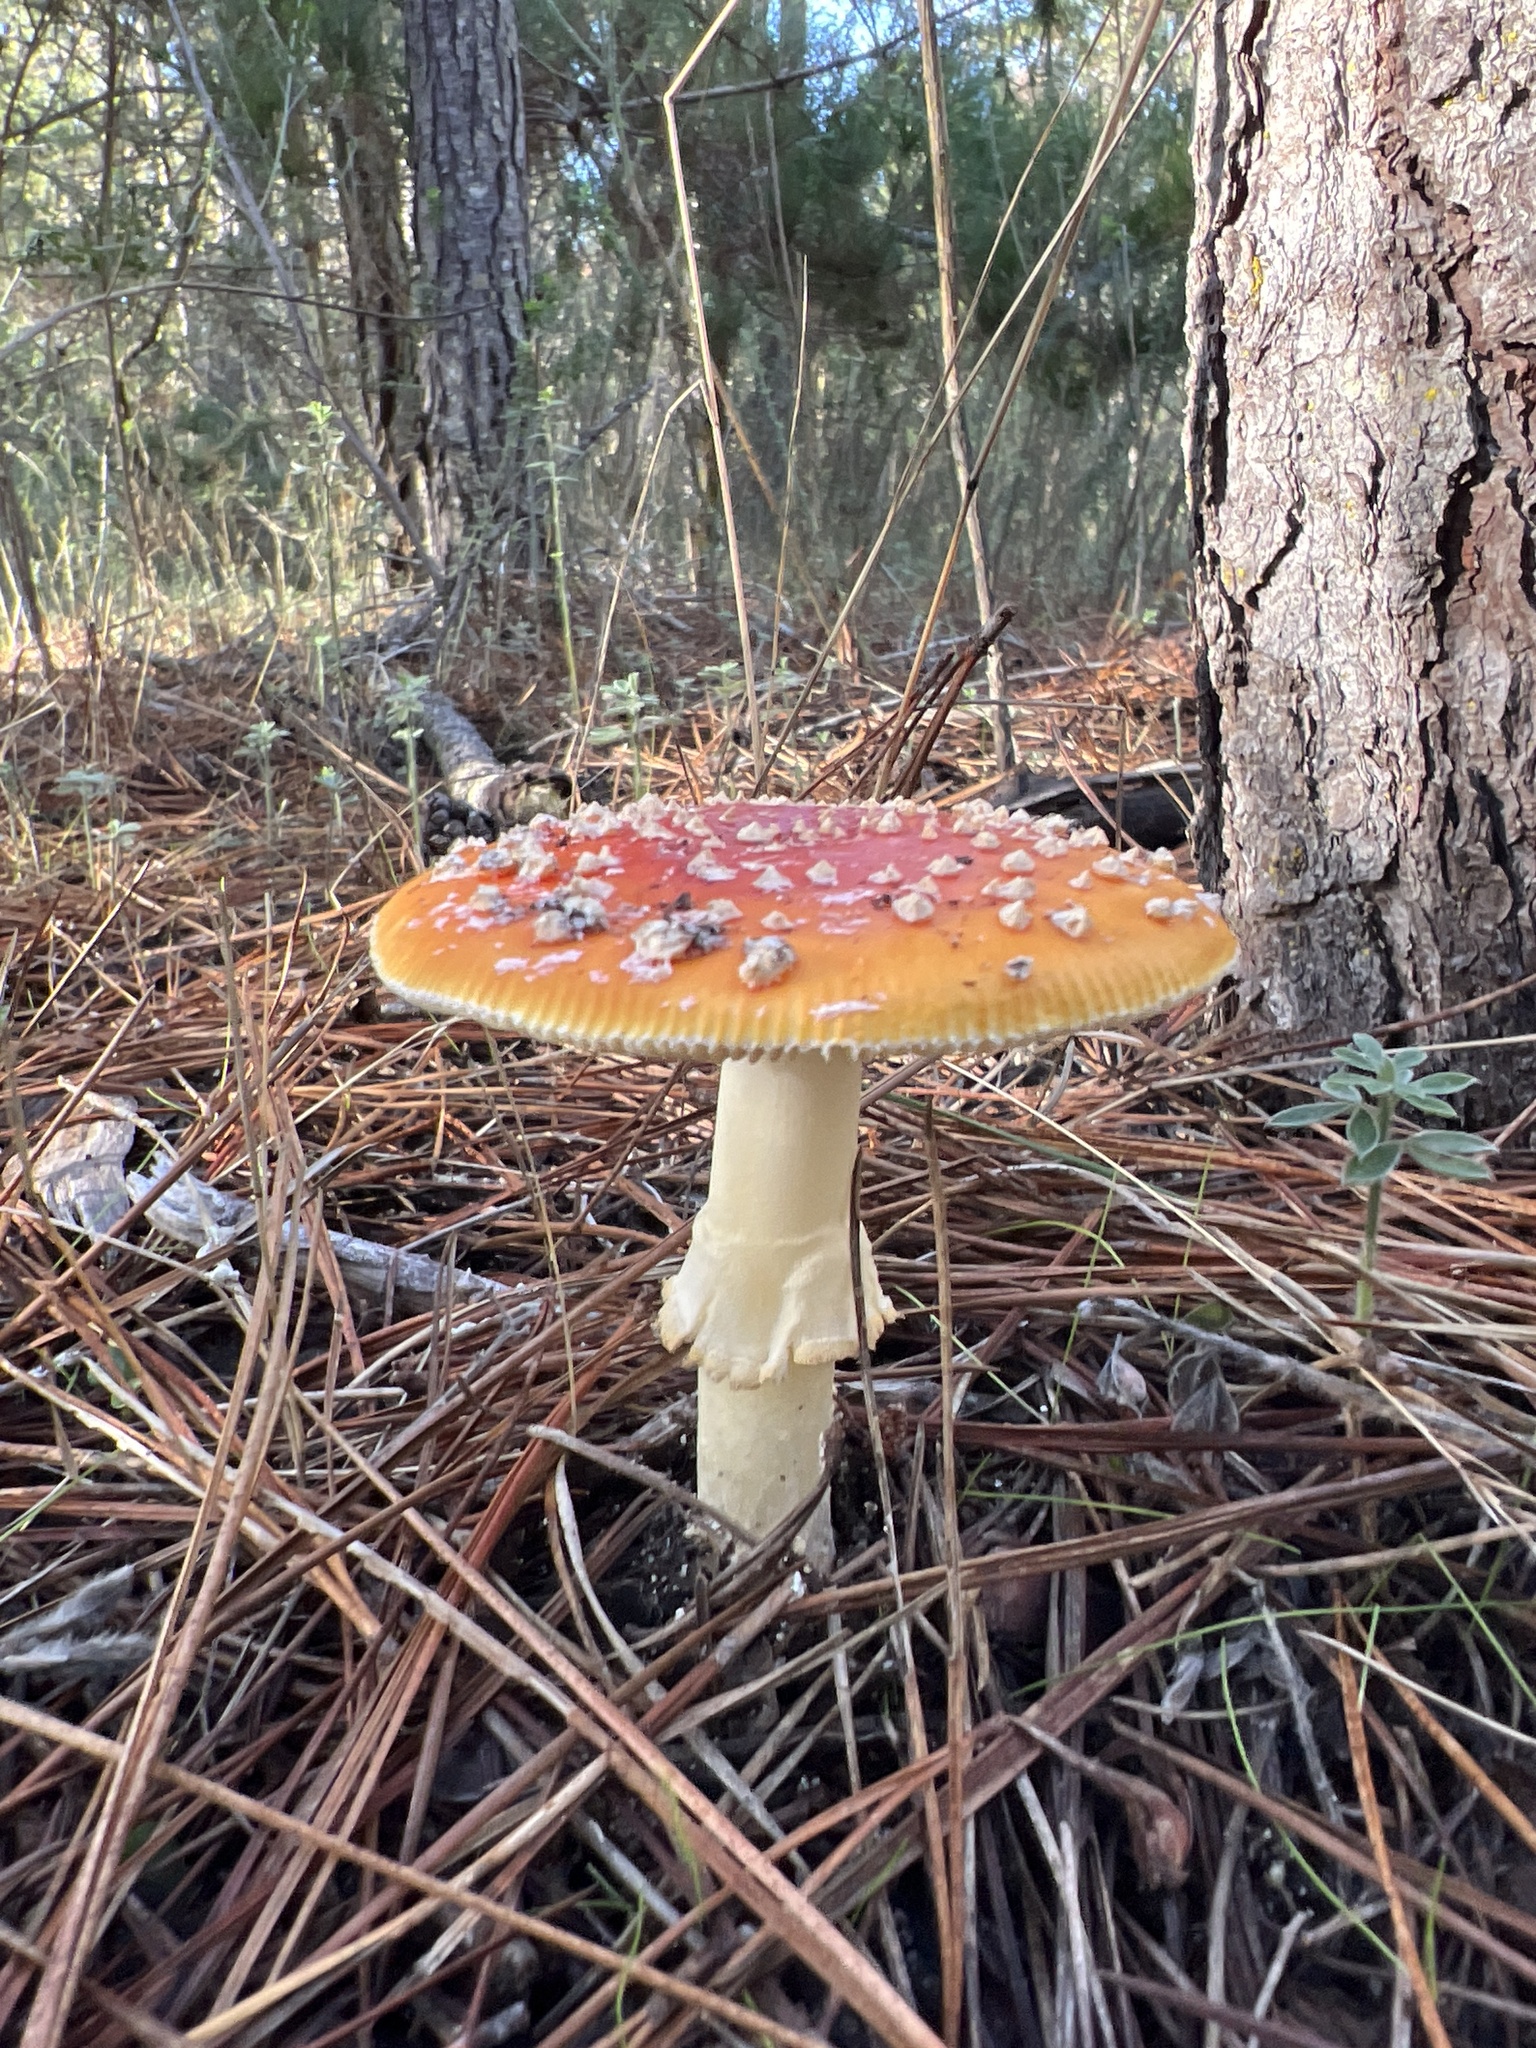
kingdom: Fungi
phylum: Basidiomycota
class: Agaricomycetes
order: Agaricales
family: Amanitaceae
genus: Amanita
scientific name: Amanita muscaria
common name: Fly agaric
